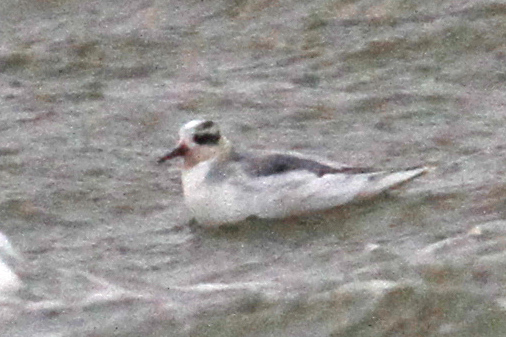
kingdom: Animalia
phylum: Chordata
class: Aves
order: Charadriiformes
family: Scolopacidae
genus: Phalaropus
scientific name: Phalaropus fulicarius
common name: Red phalarope
